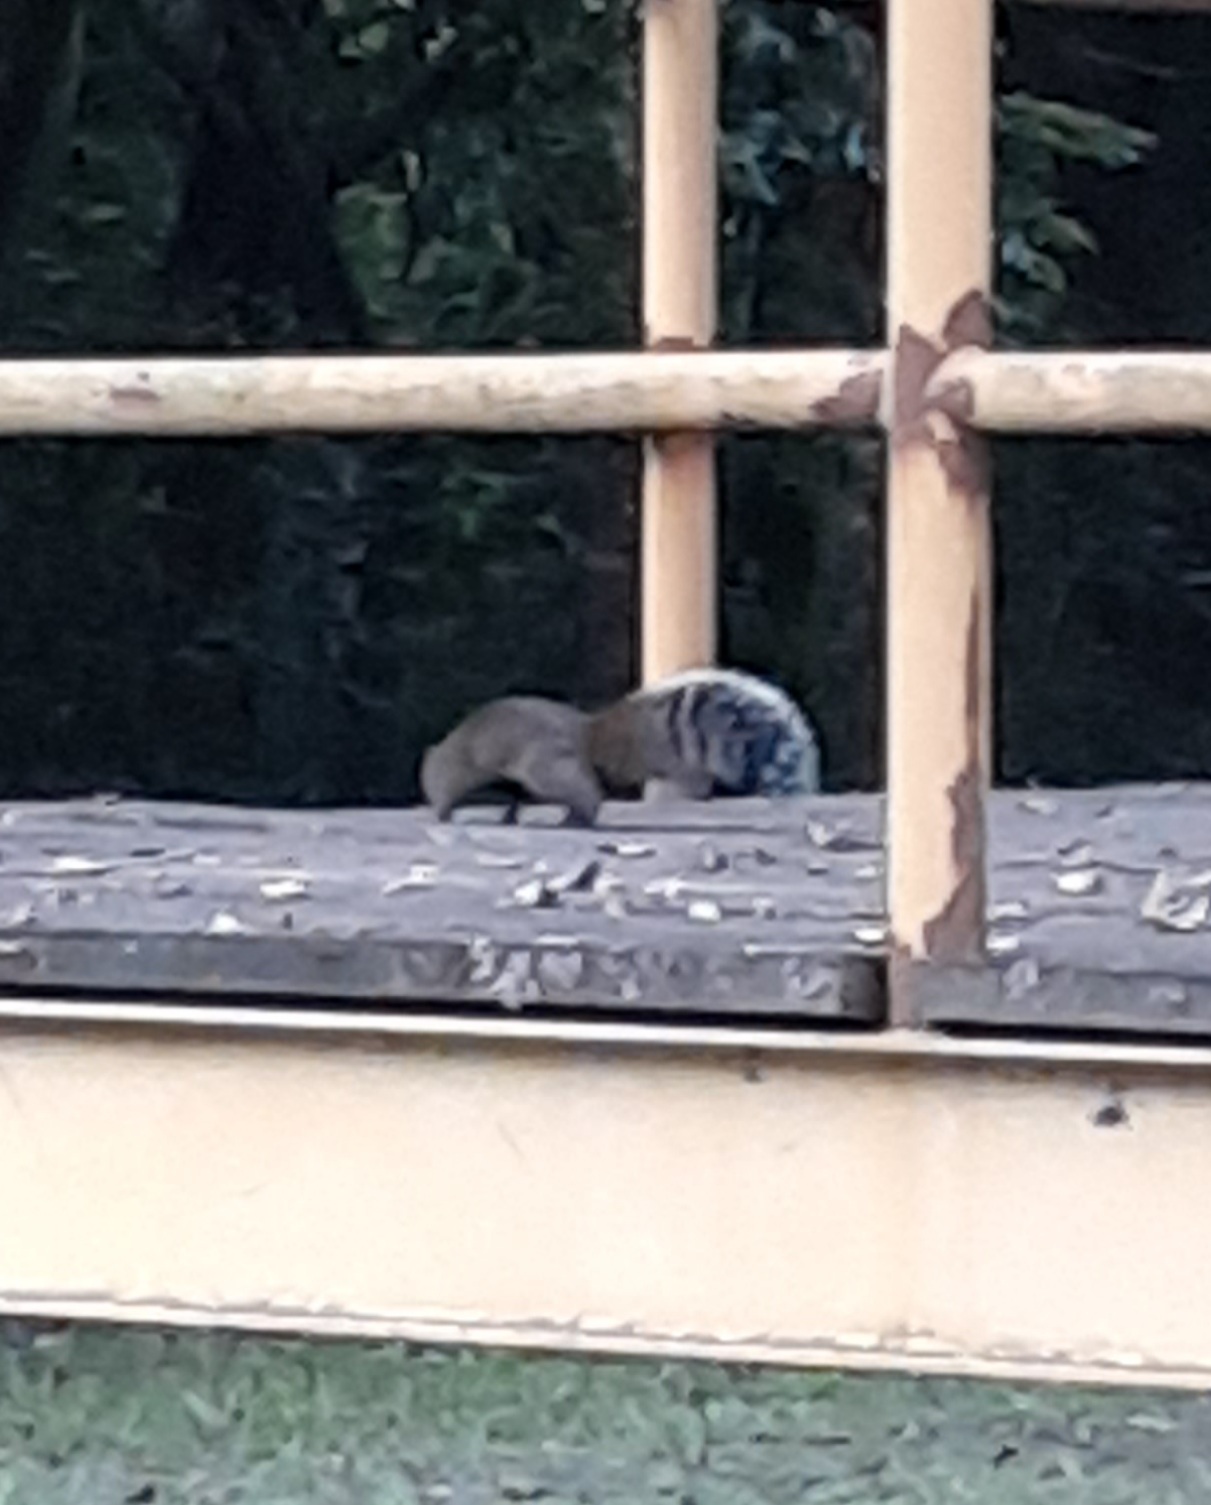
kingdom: Animalia
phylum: Chordata
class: Mammalia
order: Rodentia
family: Sciuridae
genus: Callosciurus
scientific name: Callosciurus erythraeus
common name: Pallas's squirrel
